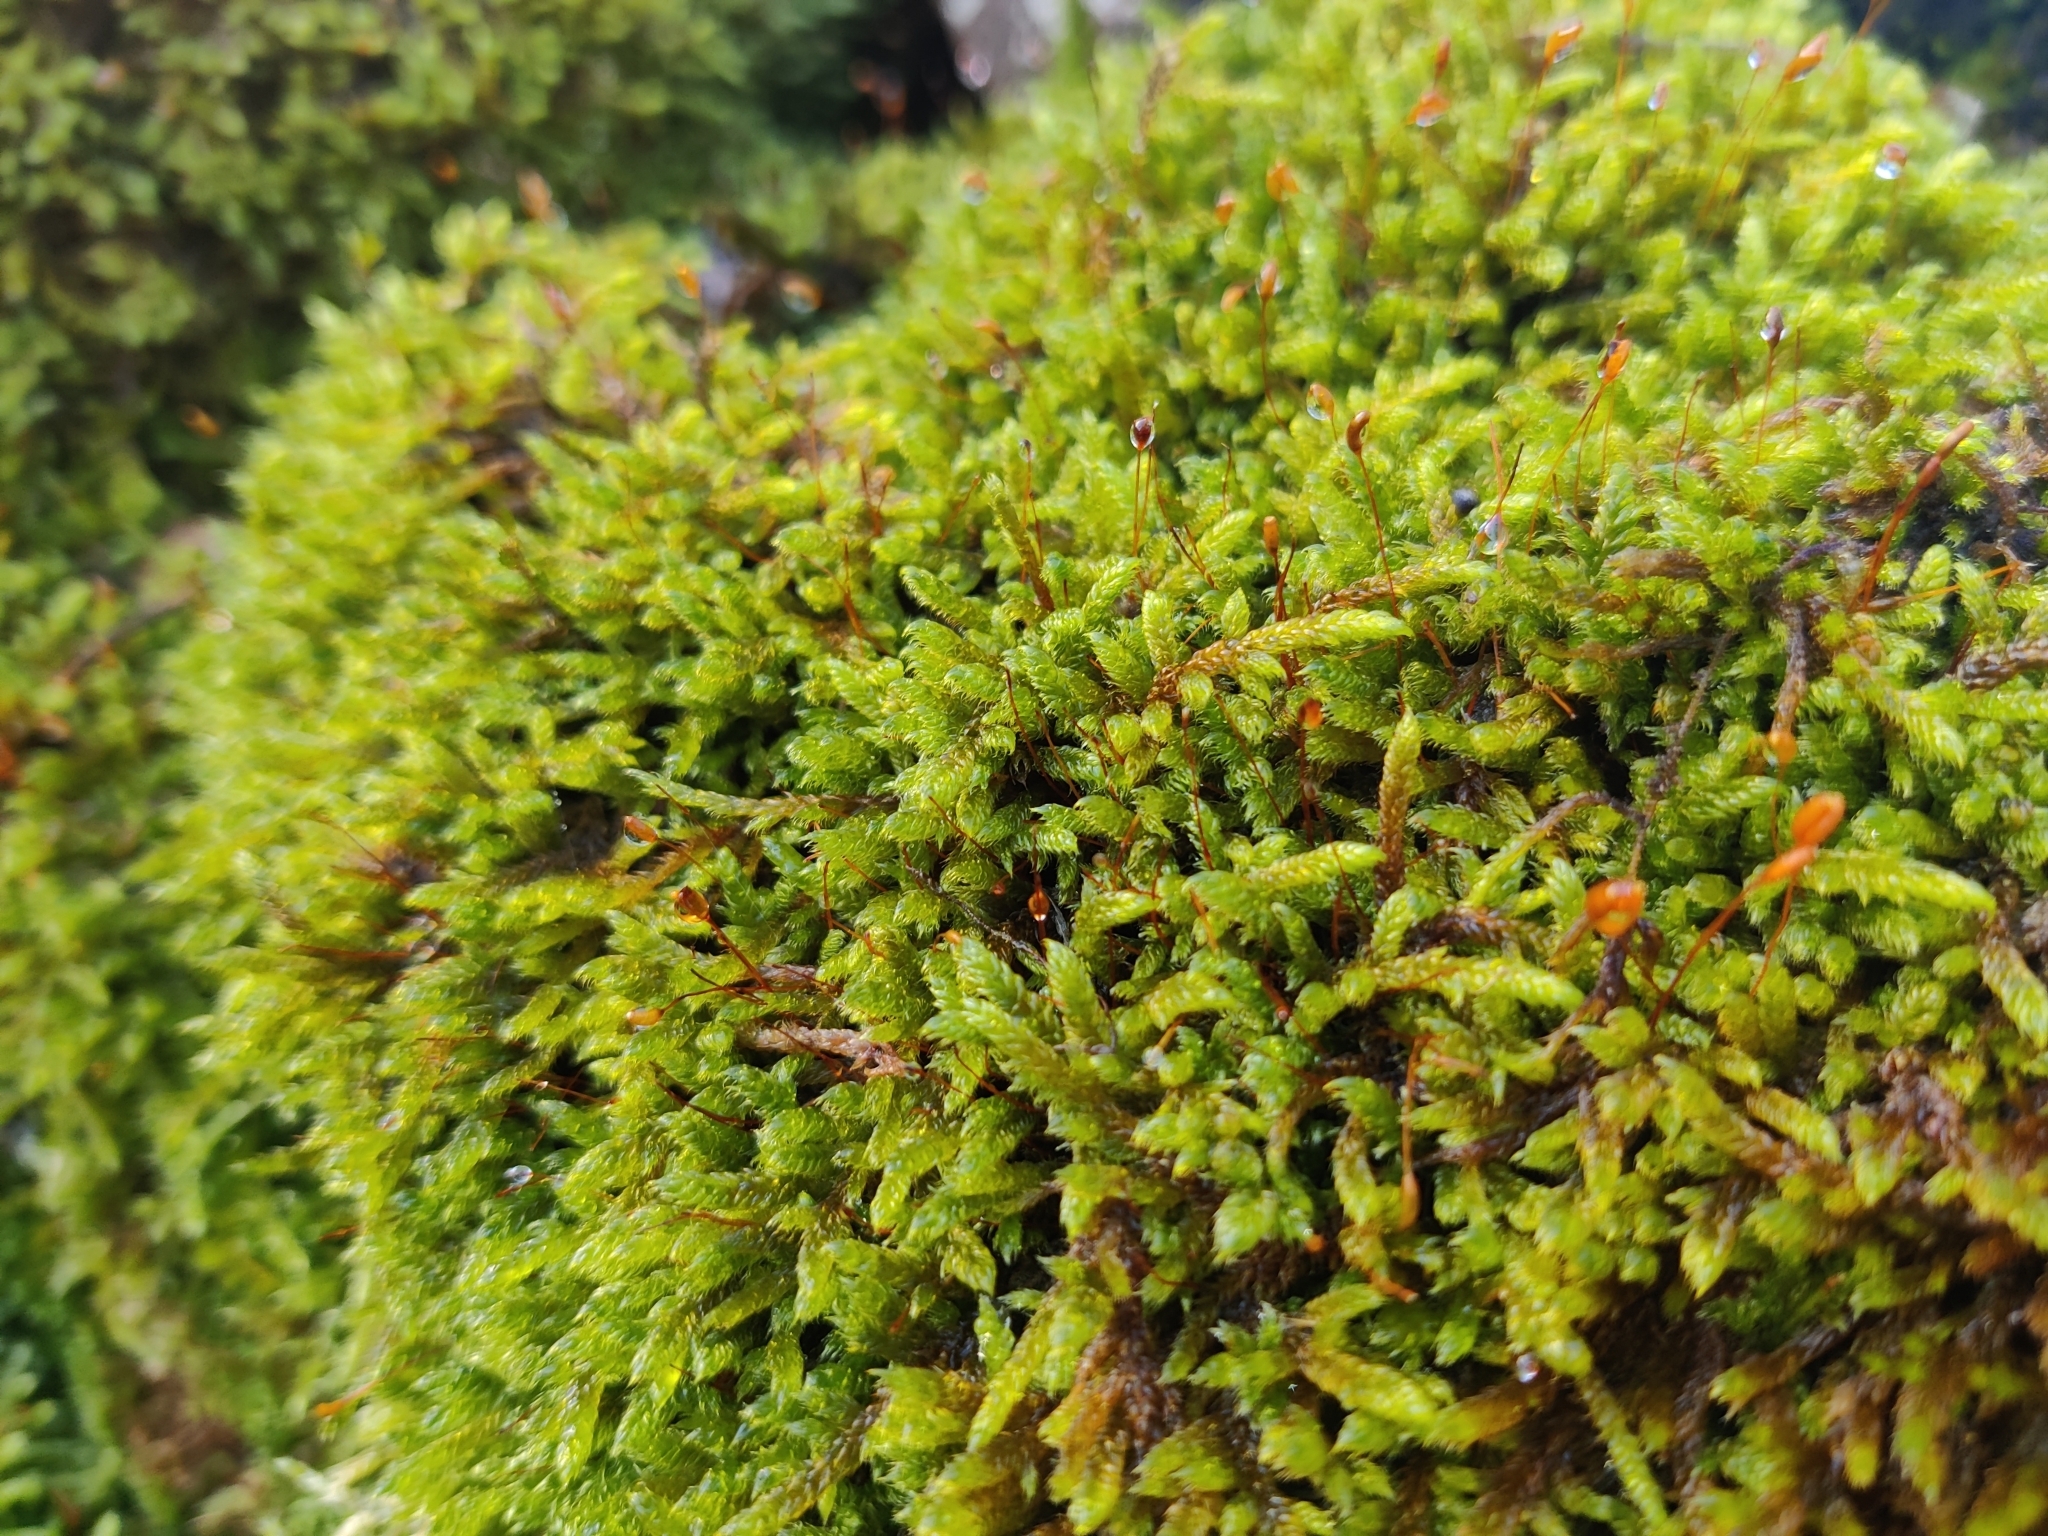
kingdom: Plantae
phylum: Bryophyta
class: Bryopsida
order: Hypnales
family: Hypnaceae
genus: Hypnum
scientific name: Hypnum cupressiforme
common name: Cypress-leaved plait-moss
